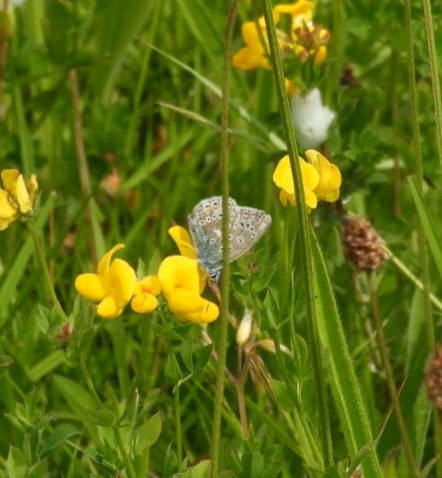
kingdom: Animalia
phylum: Arthropoda
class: Insecta
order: Lepidoptera
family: Lycaenidae
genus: Polyommatus
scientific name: Polyommatus icarus
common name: Common blue
